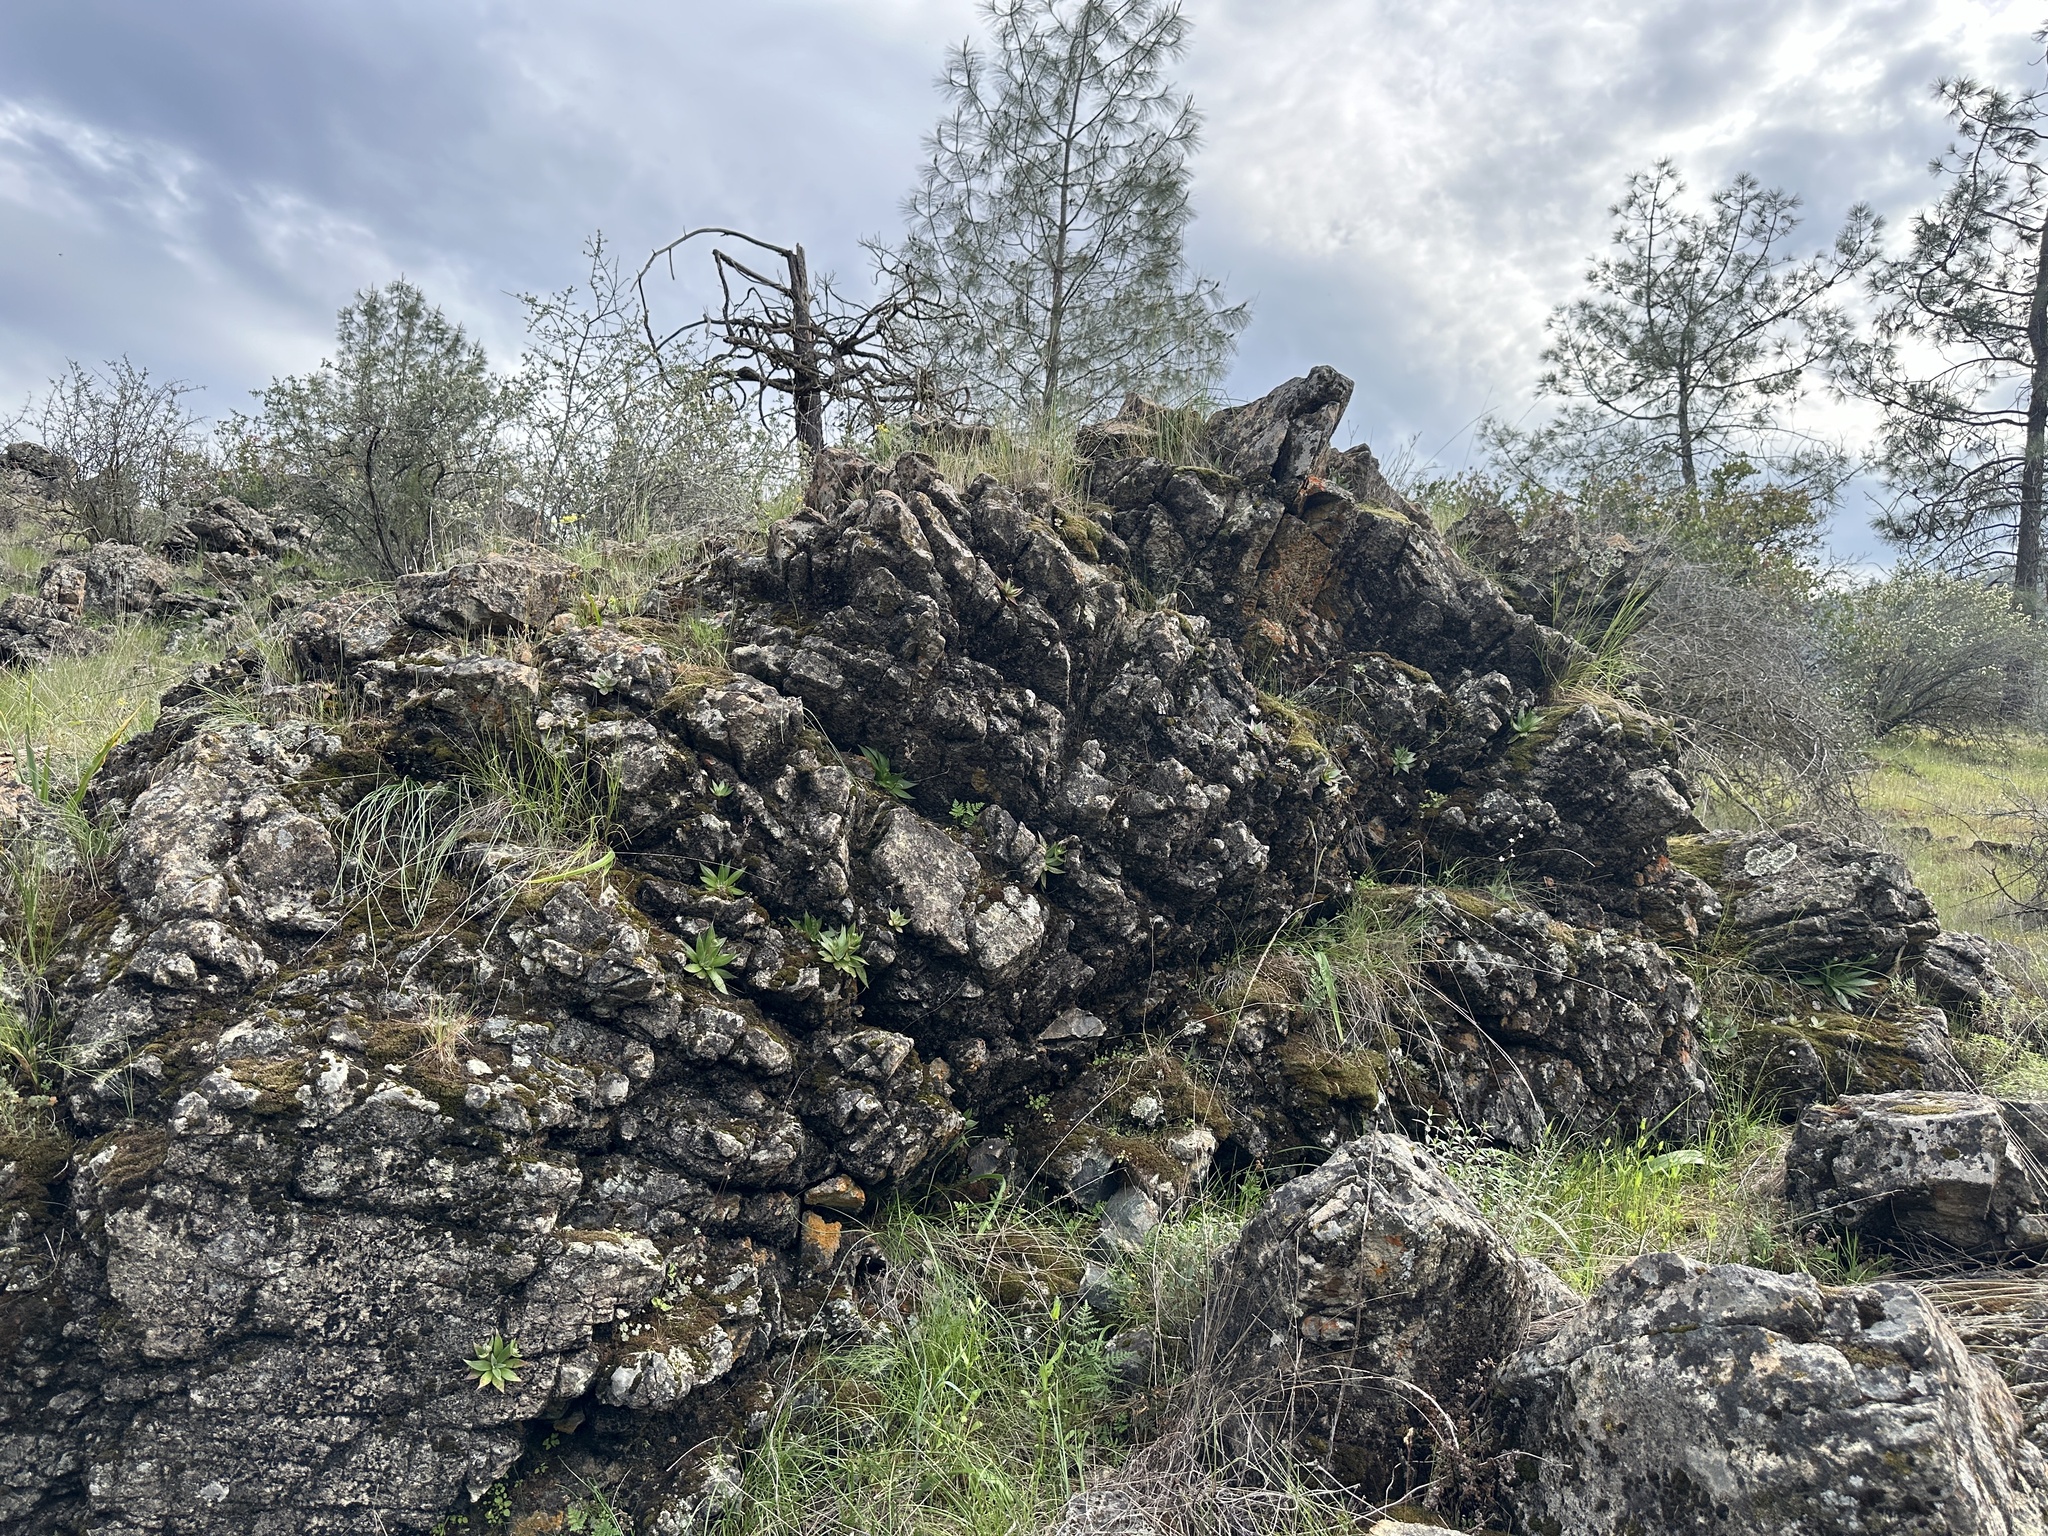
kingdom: Plantae
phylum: Tracheophyta
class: Magnoliopsida
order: Lamiales
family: Phrymaceae
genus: Erythranthe
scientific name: Erythranthe marmorata
